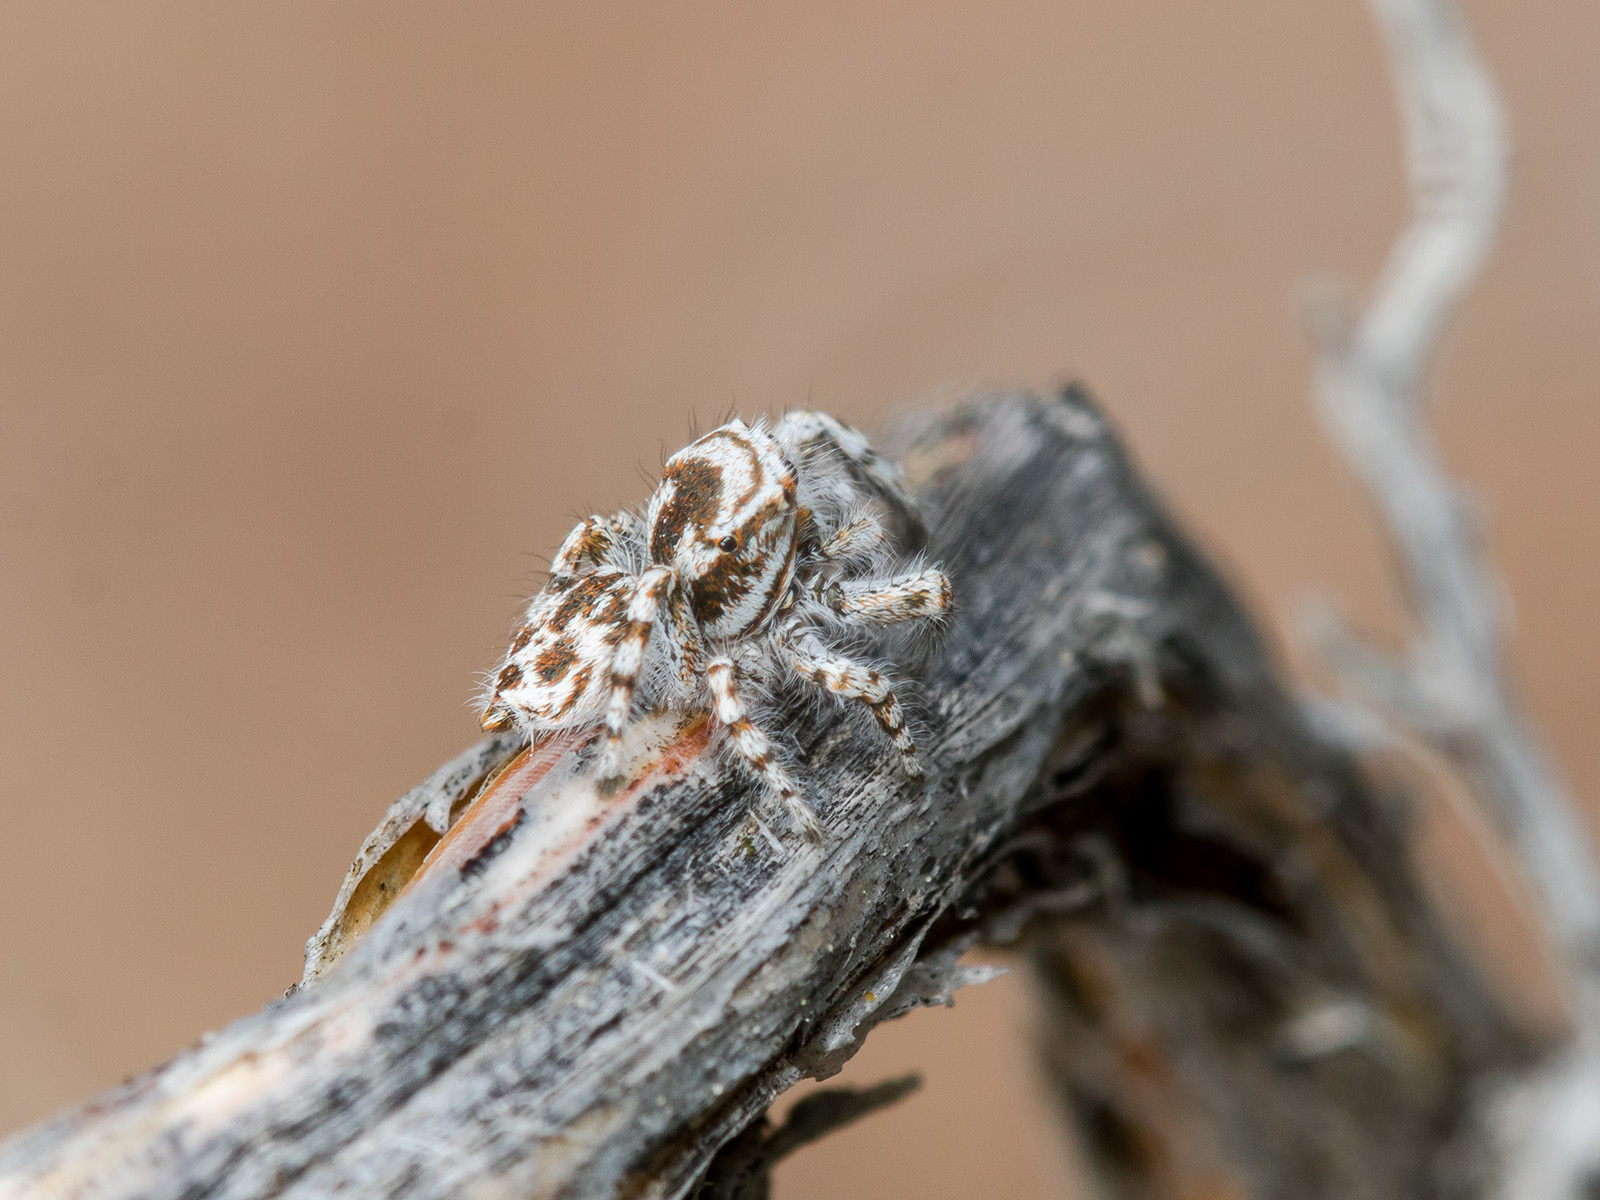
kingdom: Animalia
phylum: Arthropoda
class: Arachnida
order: Araneae
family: Salticidae
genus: Pseudomogrus
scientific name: Pseudomogrus dalaensis
